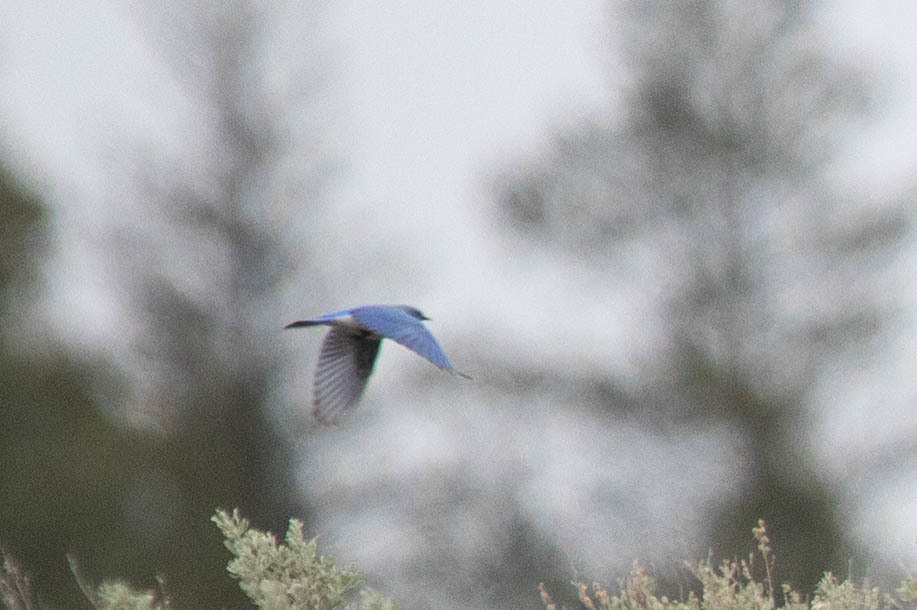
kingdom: Animalia
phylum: Chordata
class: Aves
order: Passeriformes
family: Turdidae
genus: Sialia
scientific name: Sialia currucoides
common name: Mountain bluebird
